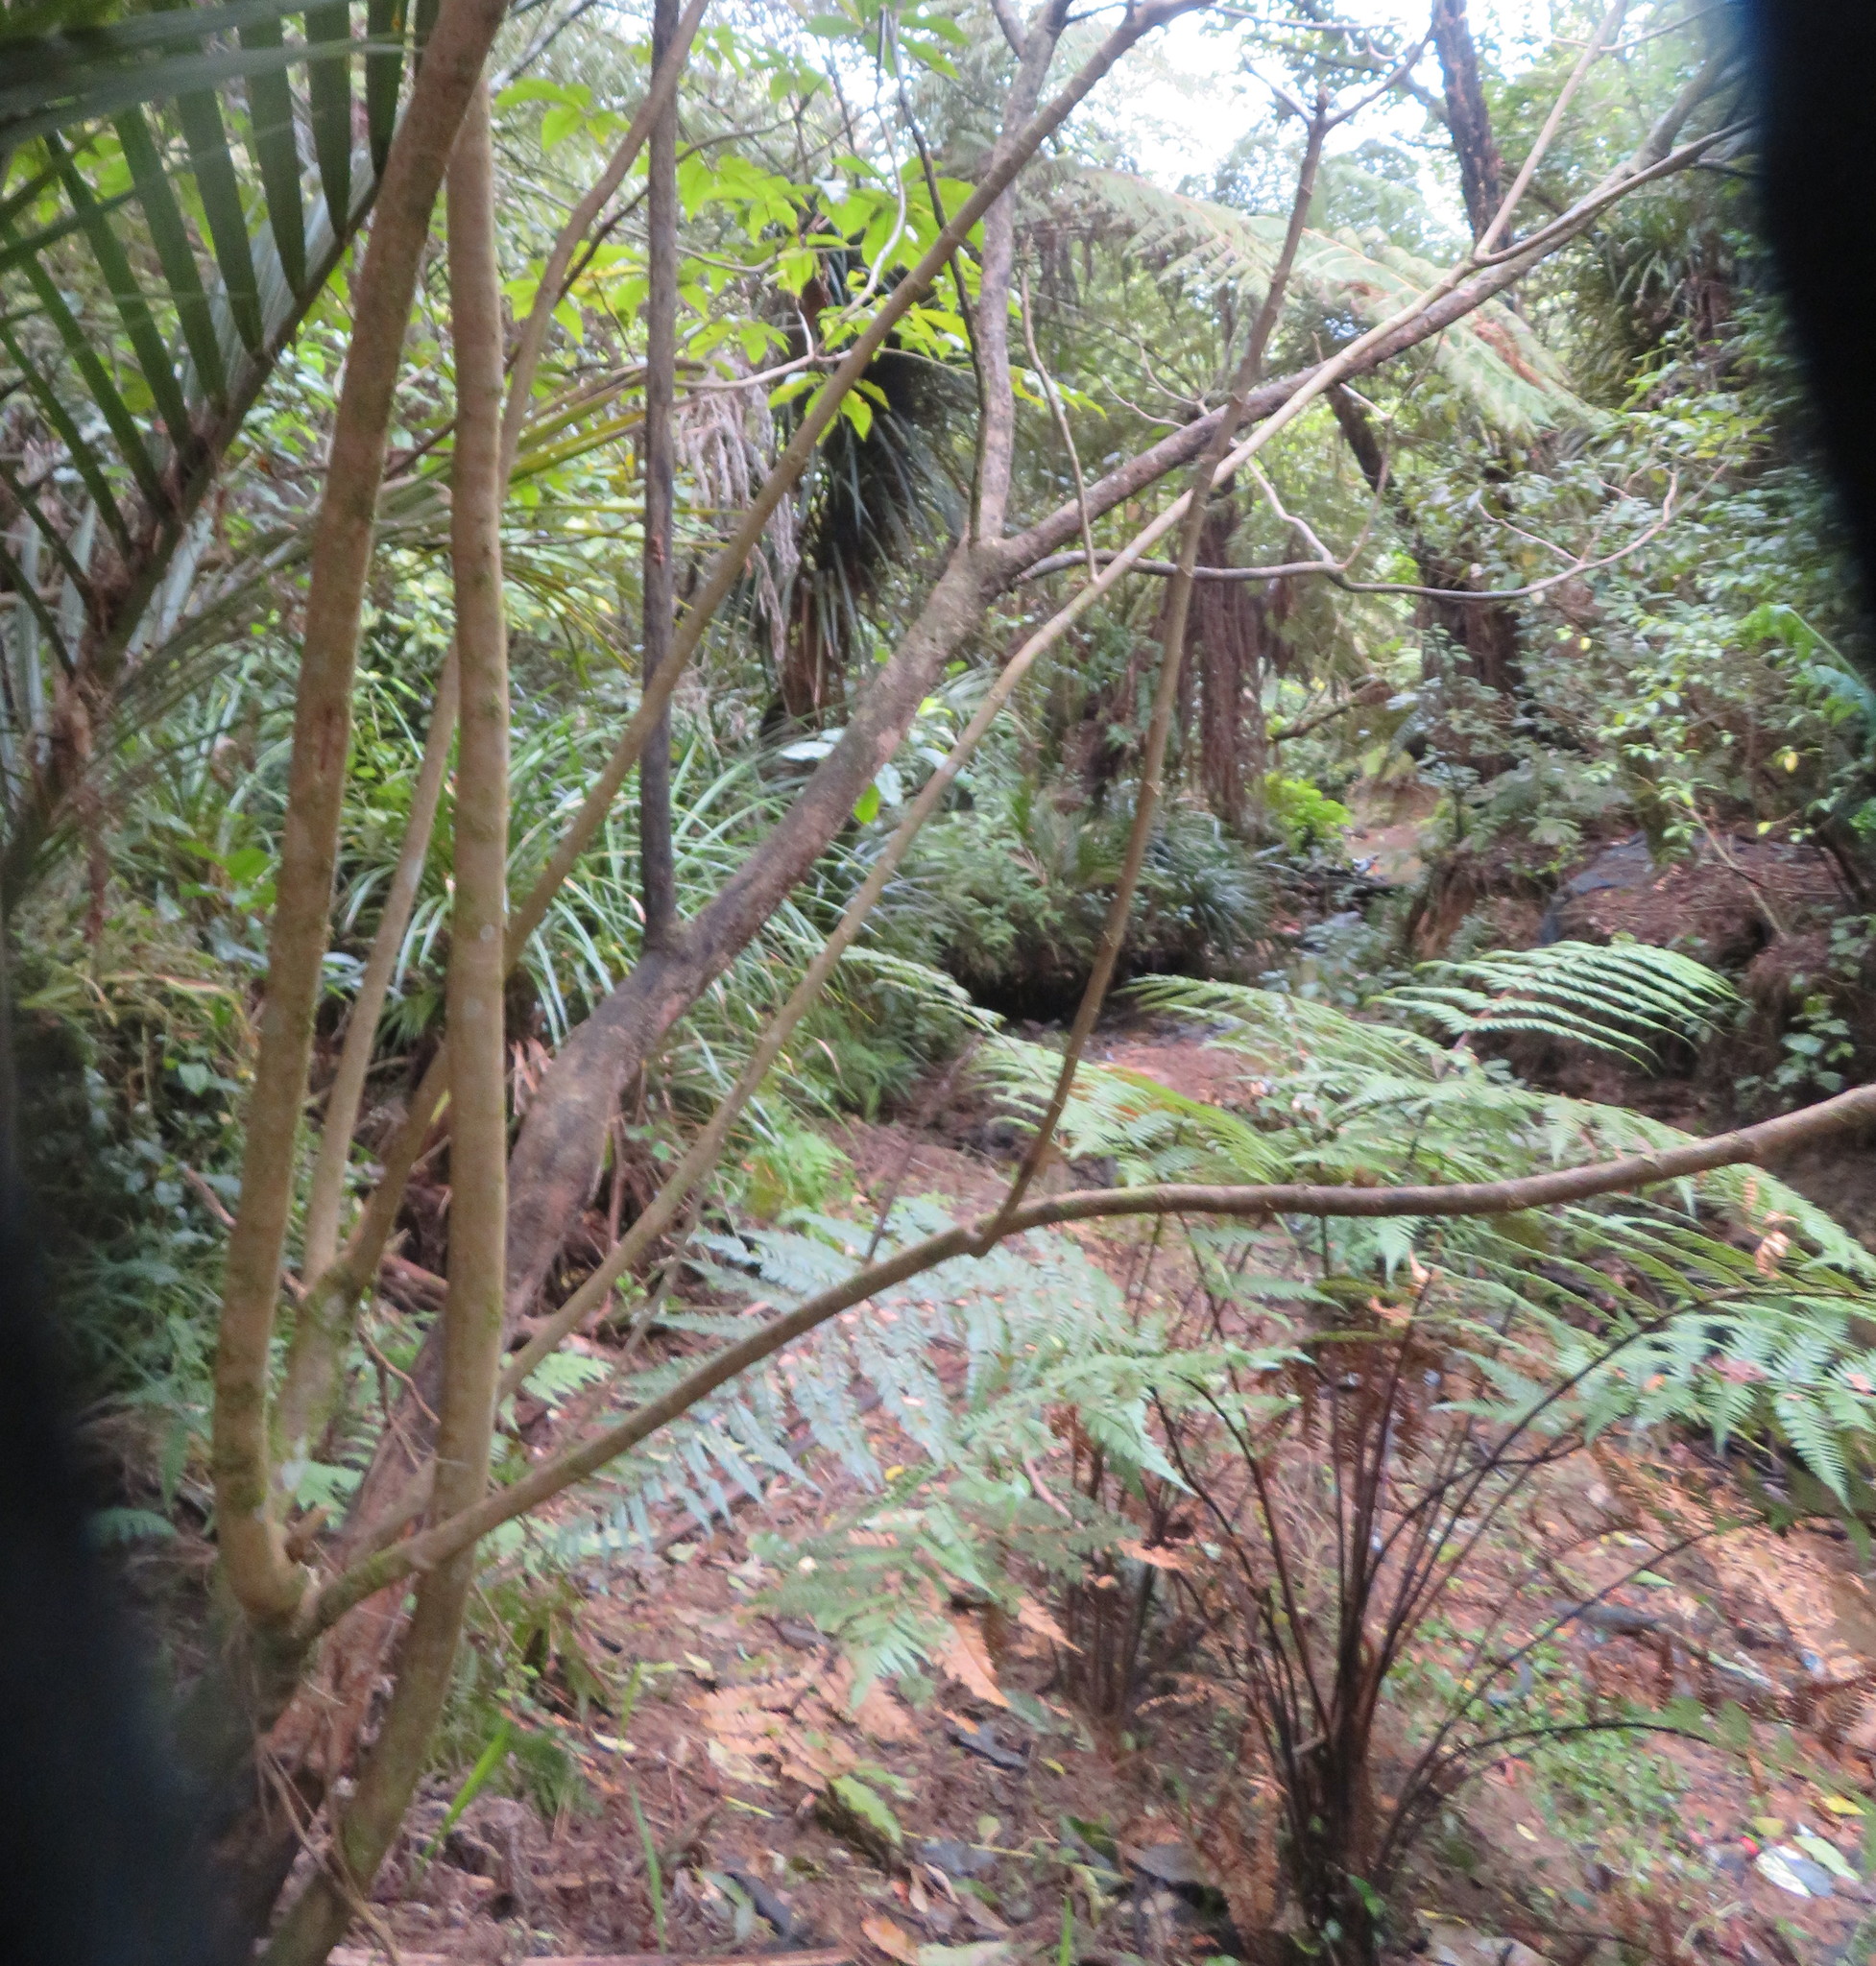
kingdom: Plantae
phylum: Tracheophyta
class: Magnoliopsida
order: Apiales
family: Araliaceae
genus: Schefflera
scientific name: Schefflera digitata
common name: Pate
